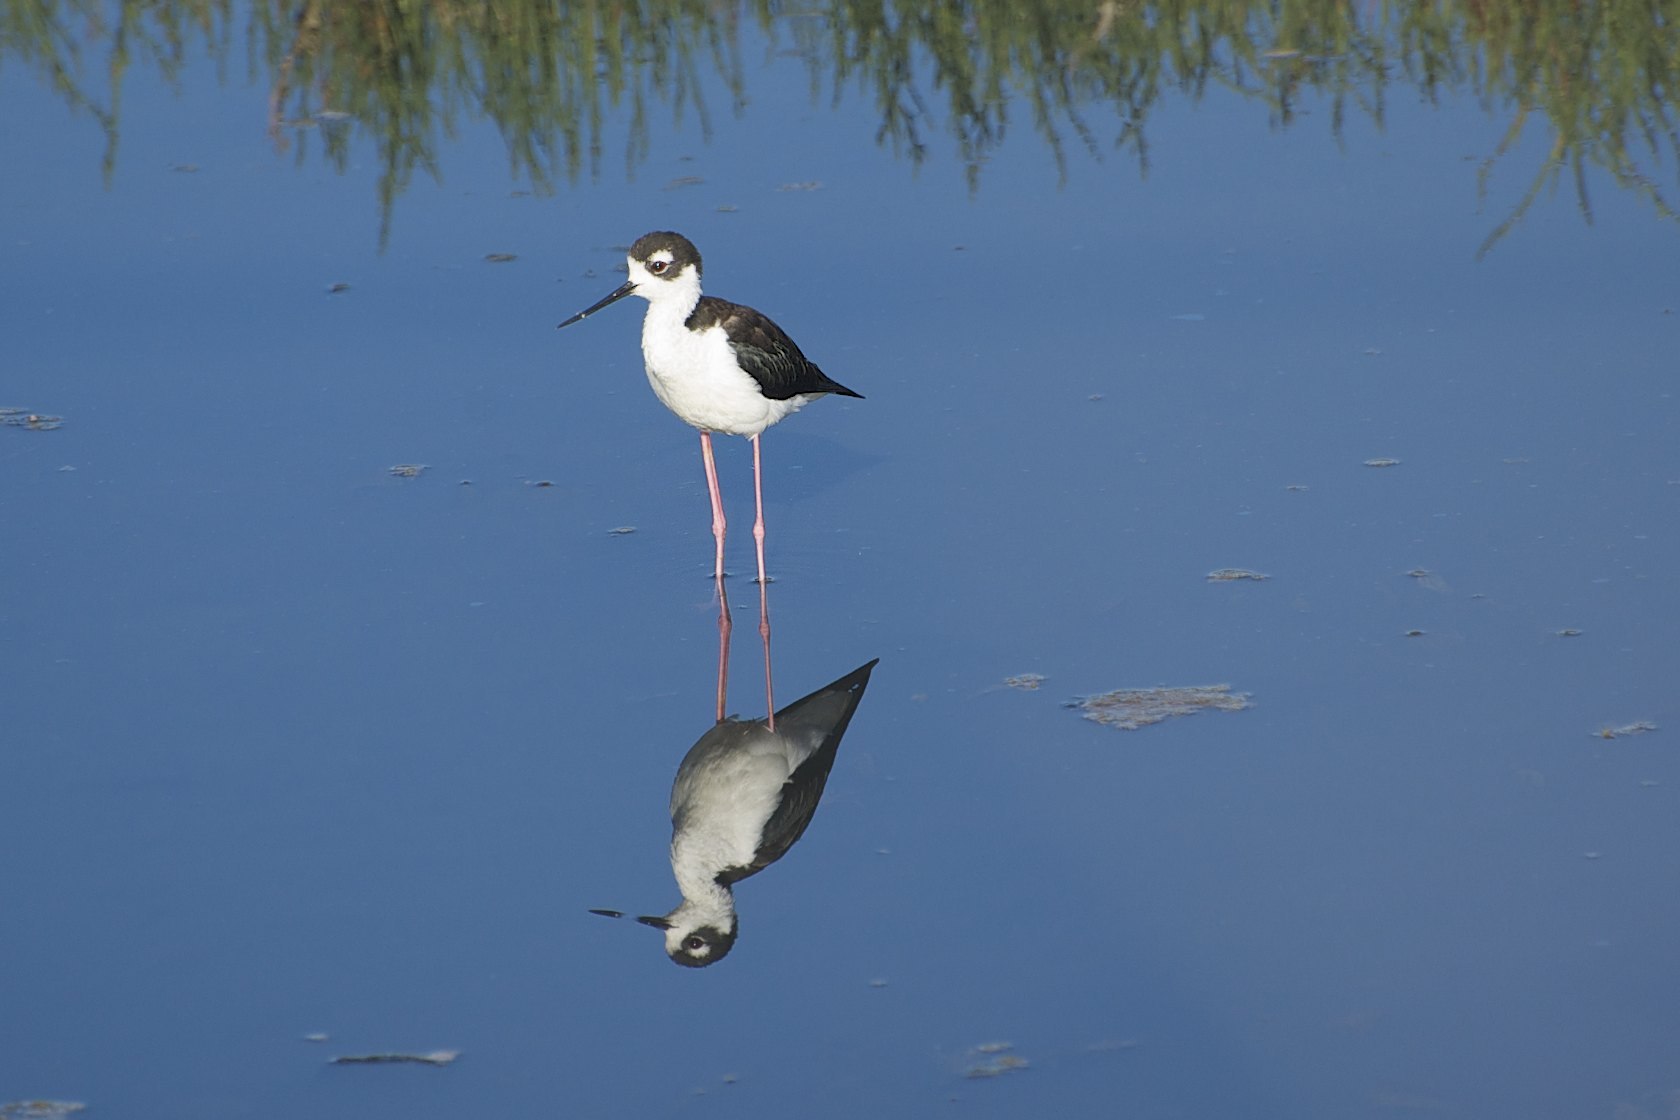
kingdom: Animalia
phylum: Chordata
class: Aves
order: Charadriiformes
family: Recurvirostridae
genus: Himantopus
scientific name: Himantopus mexicanus
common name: Black-necked stilt
